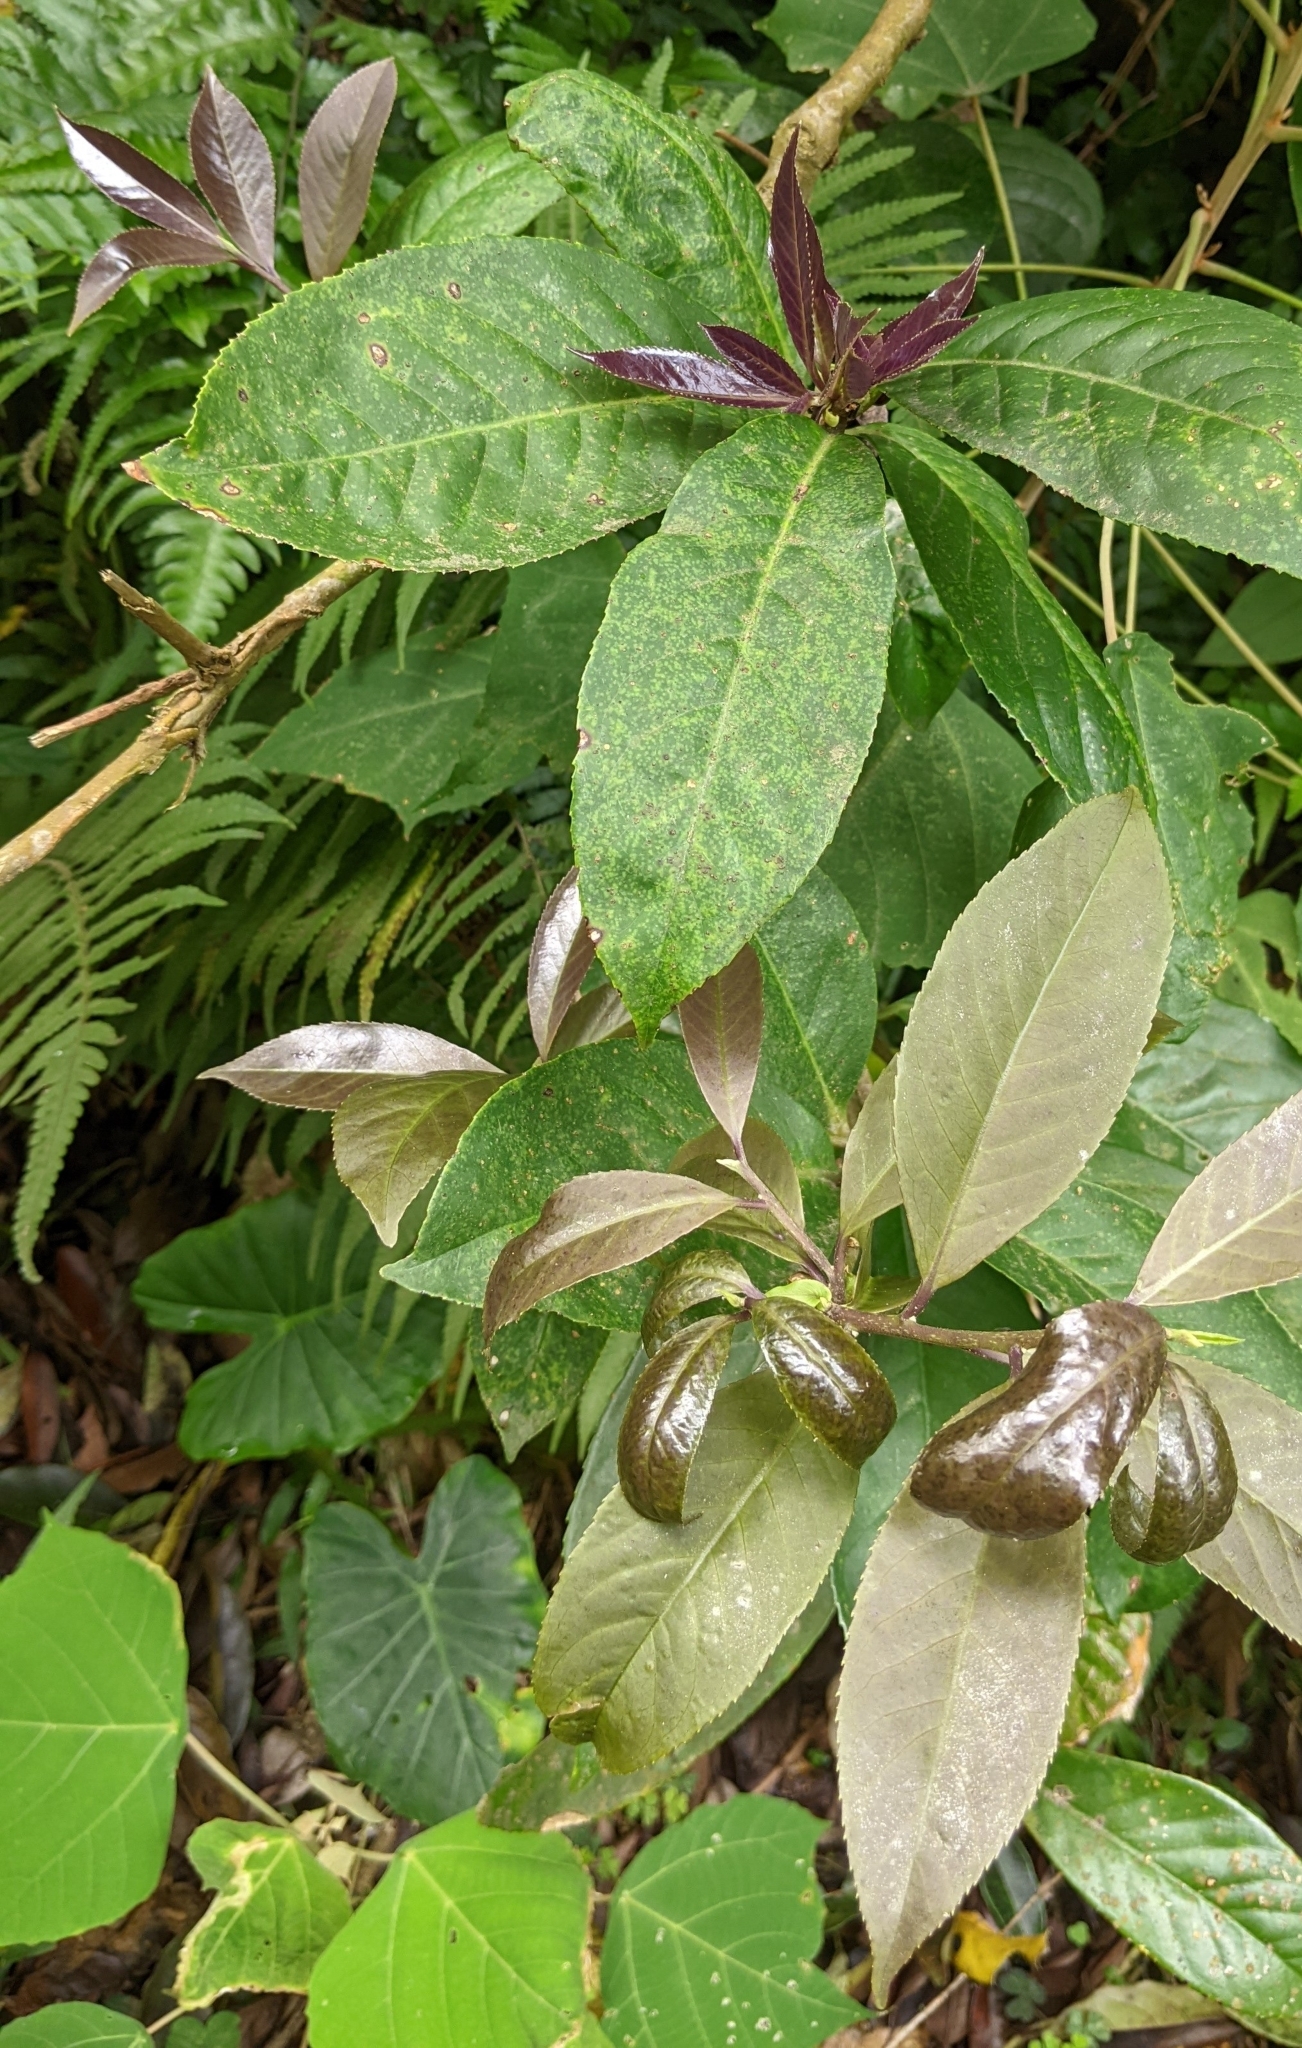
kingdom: Plantae
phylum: Tracheophyta
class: Magnoliopsida
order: Ericales
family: Symplocaceae
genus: Symplocos
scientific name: Symplocos acuminata
